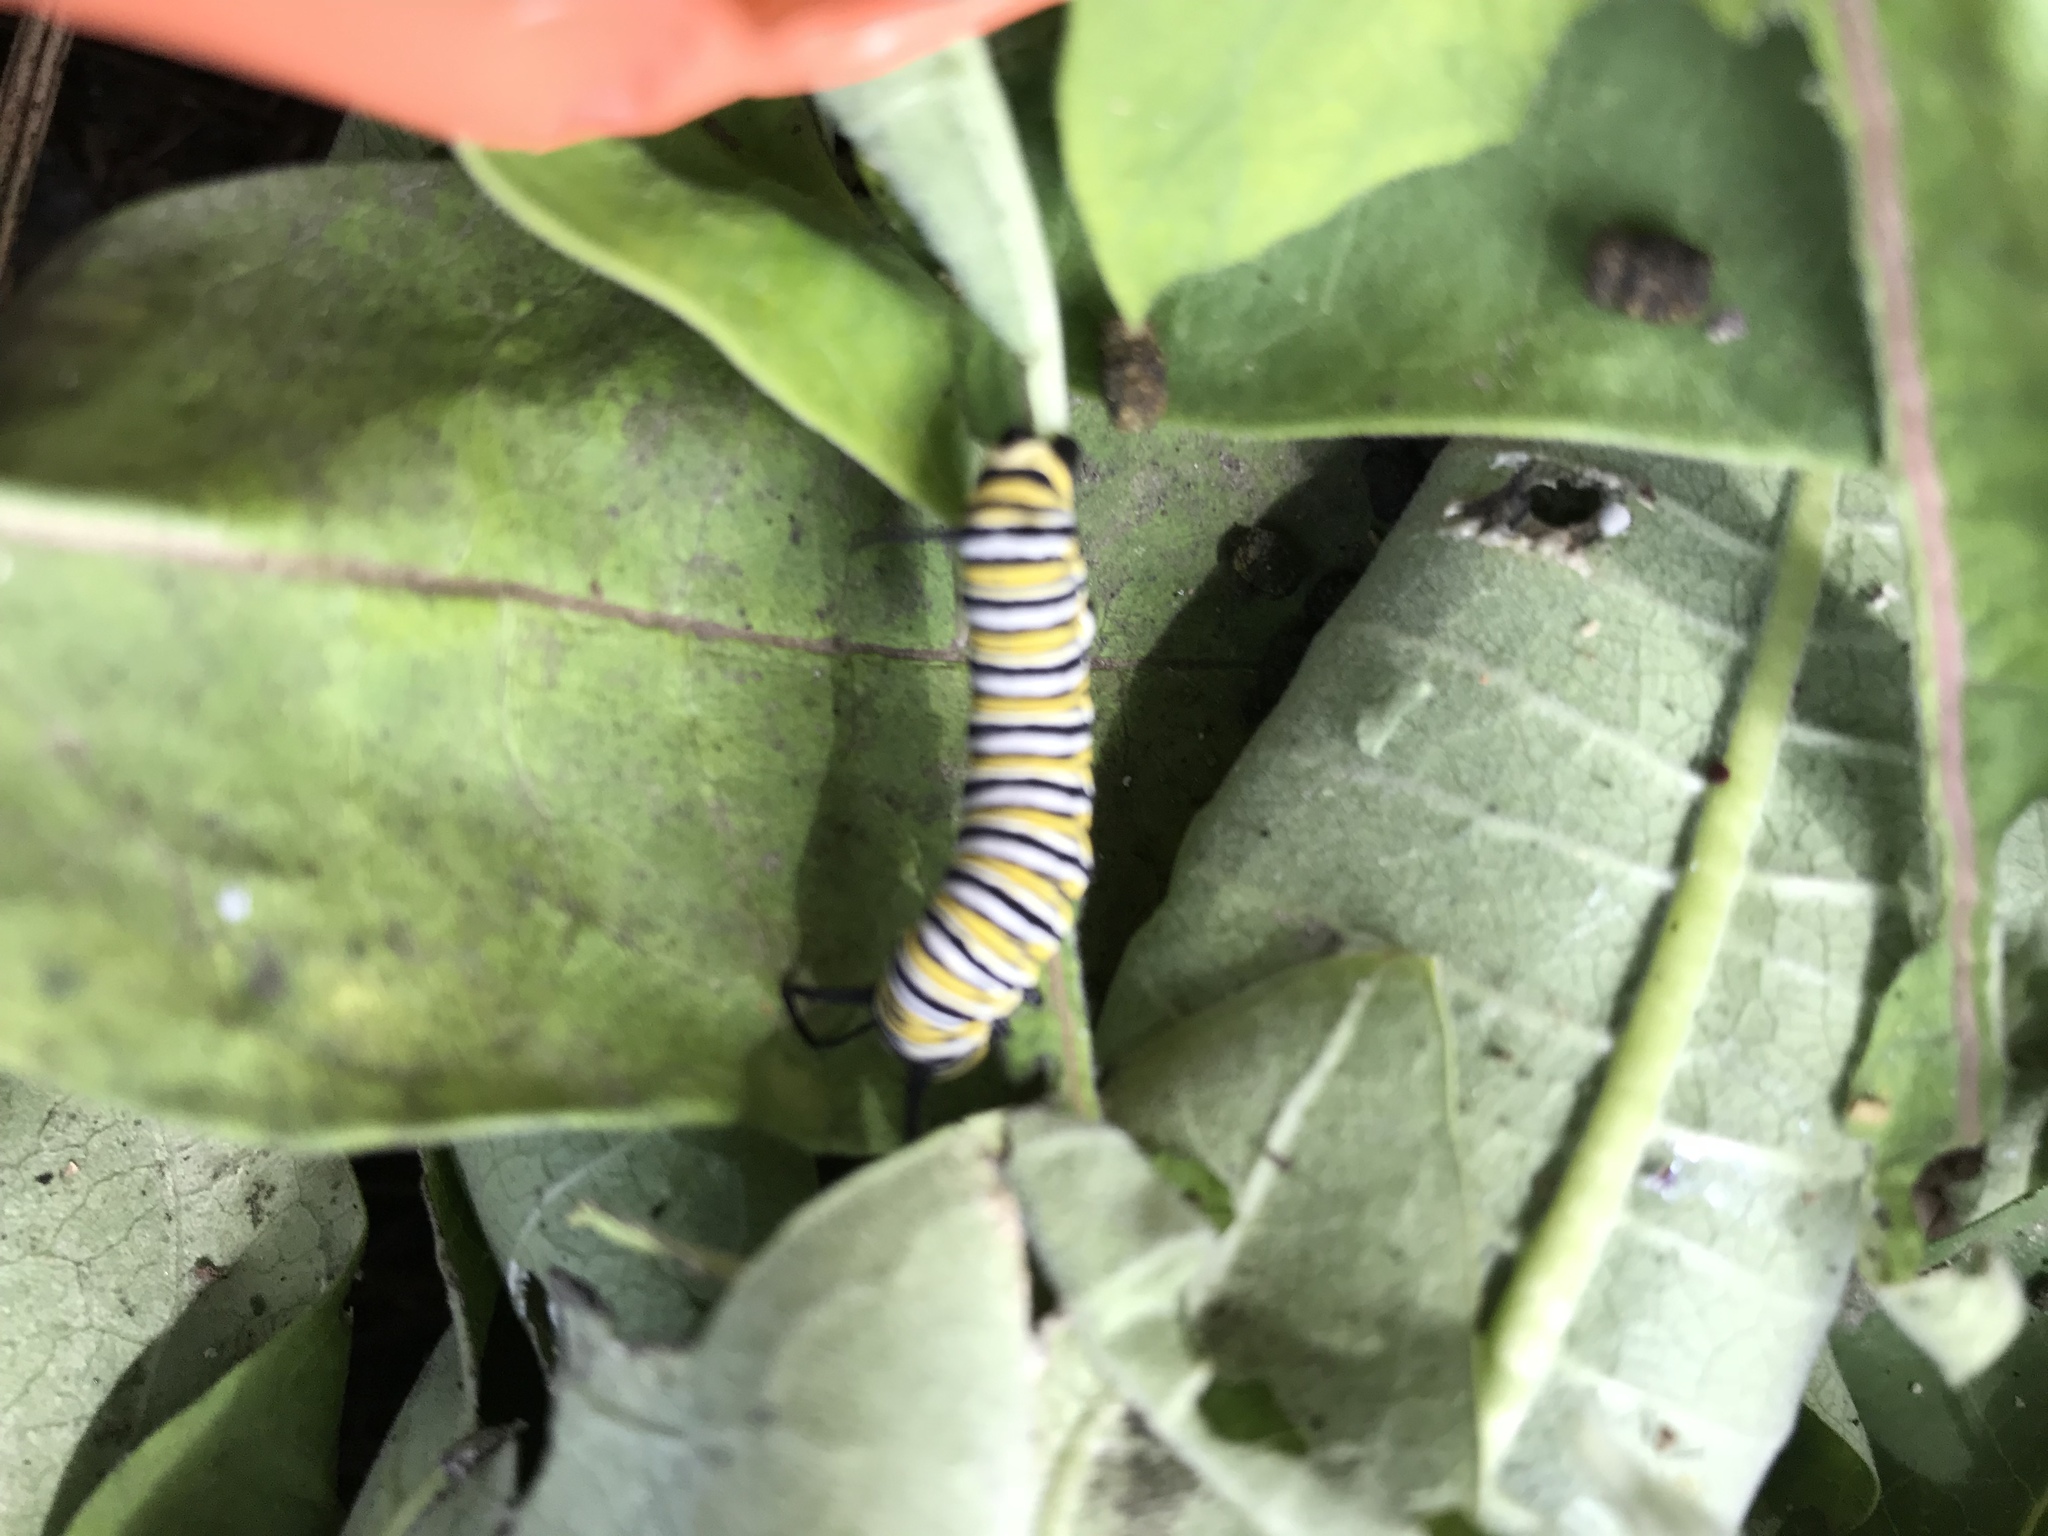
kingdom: Animalia
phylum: Arthropoda
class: Insecta
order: Lepidoptera
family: Nymphalidae
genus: Danaus
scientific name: Danaus plexippus
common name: Monarch
